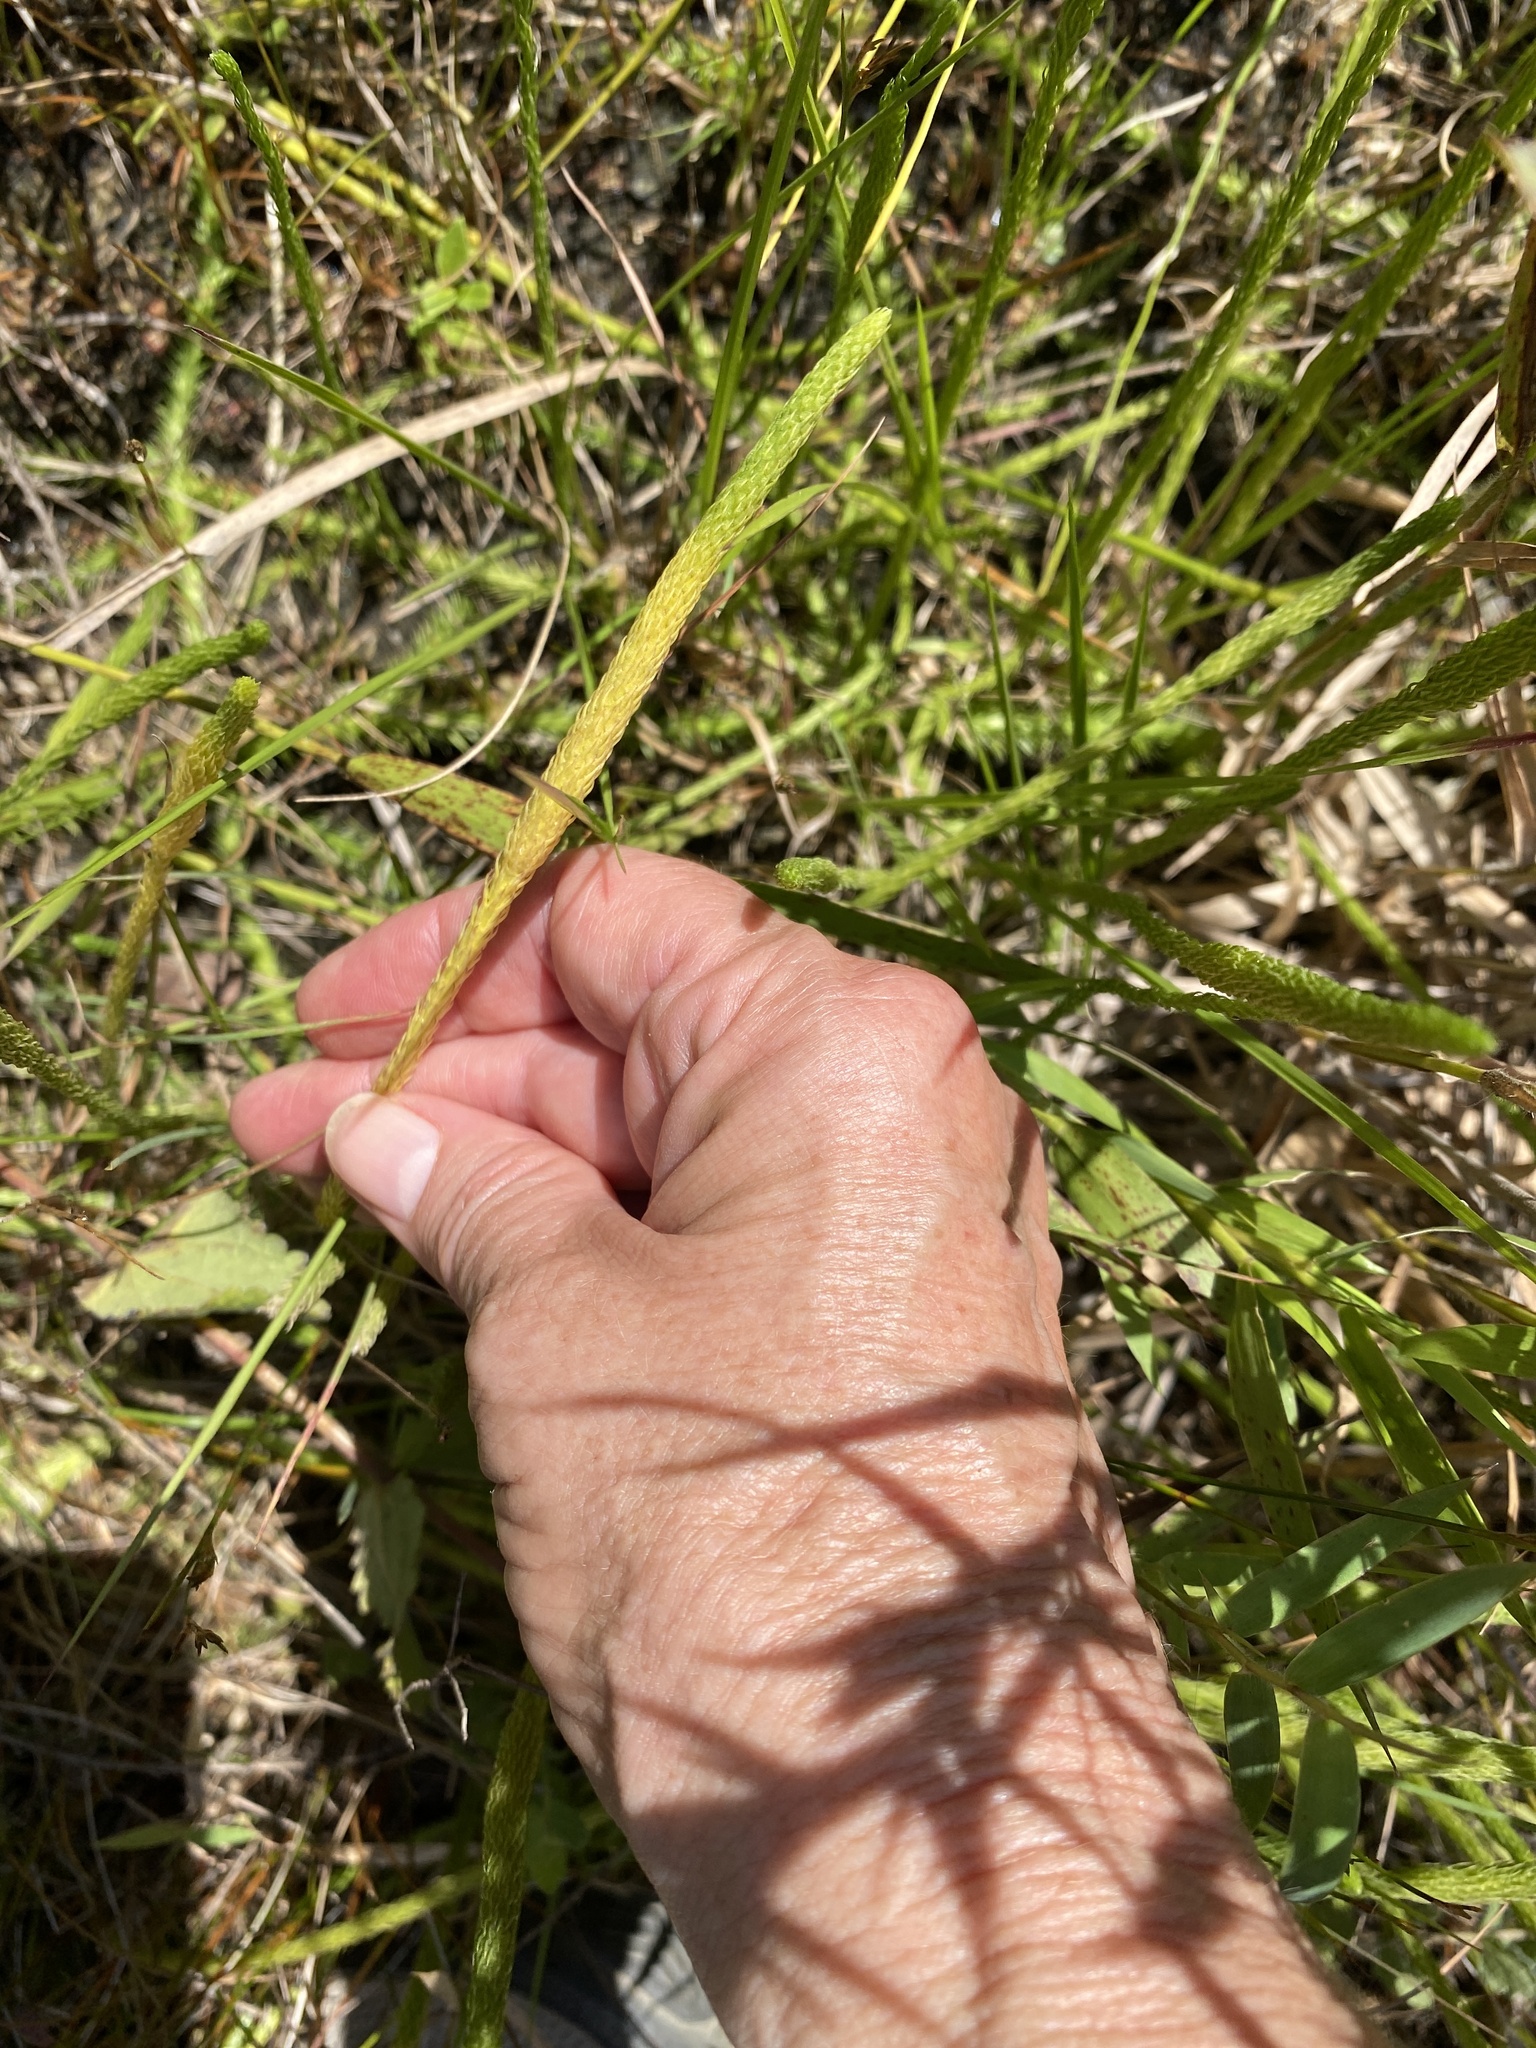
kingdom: Plantae
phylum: Tracheophyta
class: Lycopodiopsida
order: Lycopodiales
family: Lycopodiaceae
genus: Lycopodiella
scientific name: Lycopodiella appressa
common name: Appressed bog clubmoss
